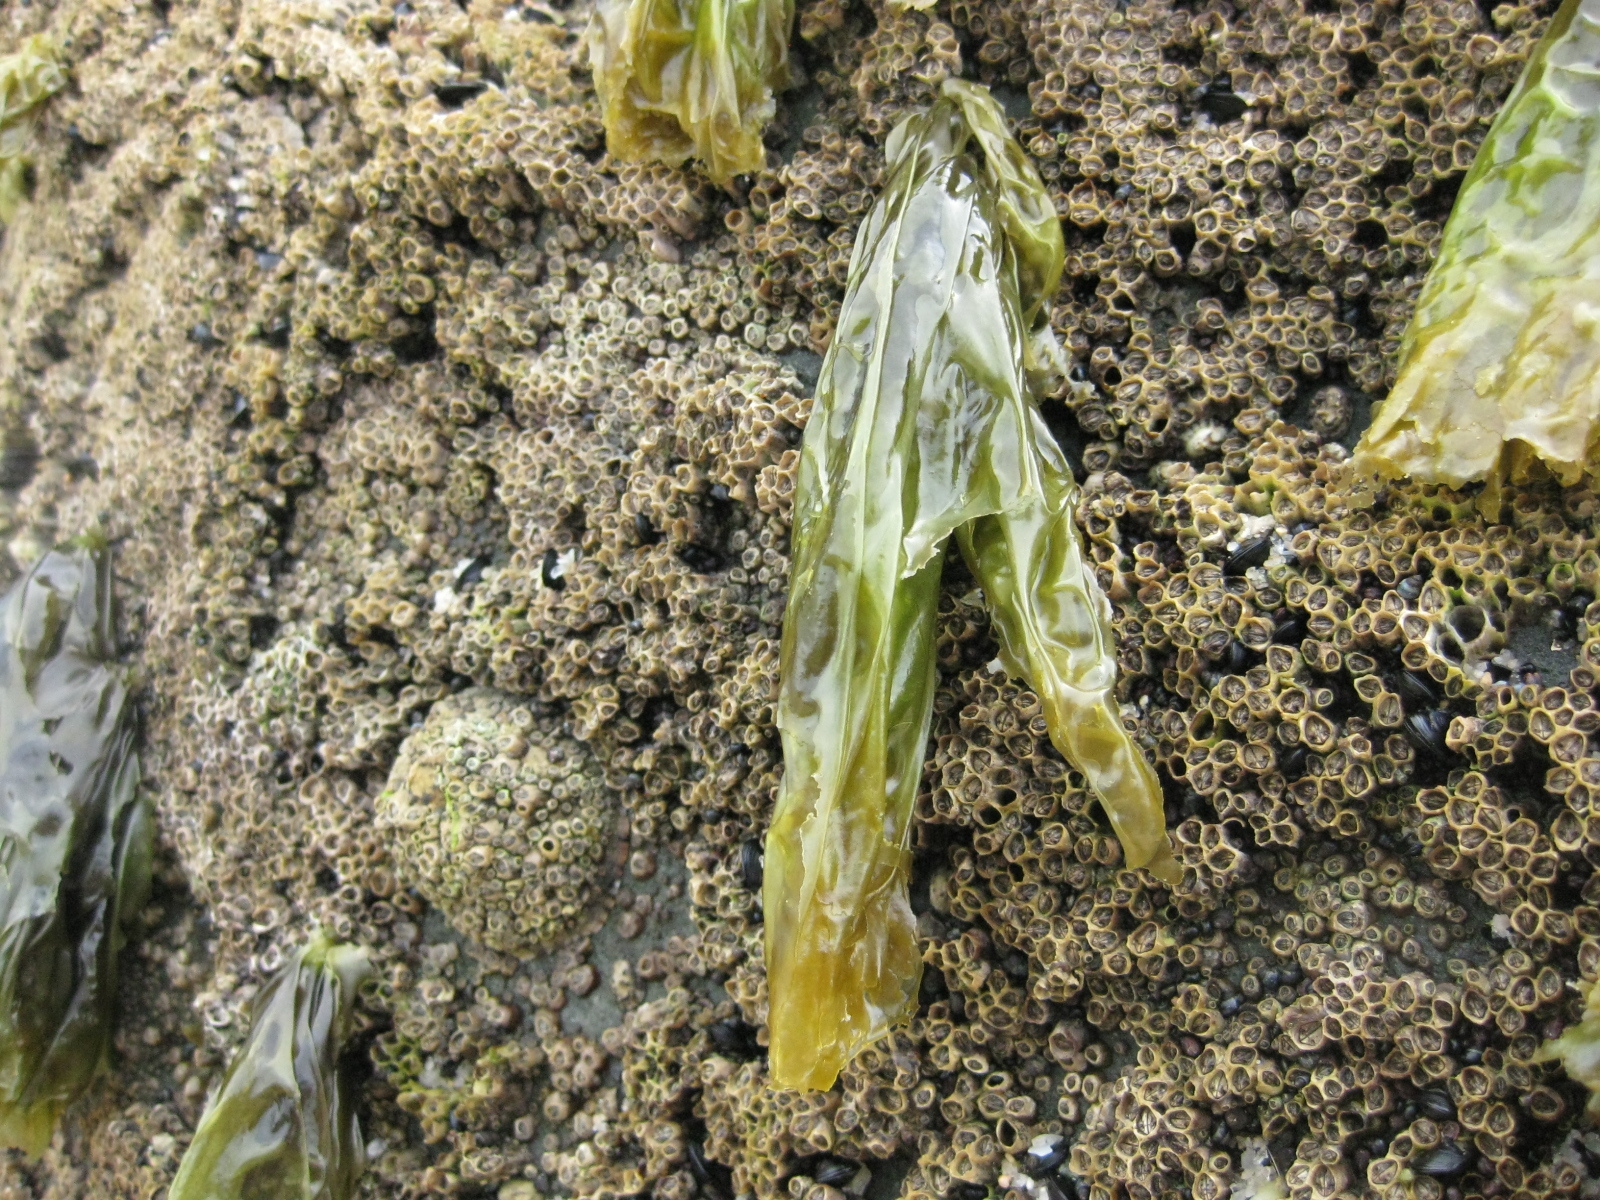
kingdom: Plantae
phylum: Rhodophyta
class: Bangiophyceae
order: Bangiales
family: Bangiaceae
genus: Clymene
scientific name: Clymene coleana
